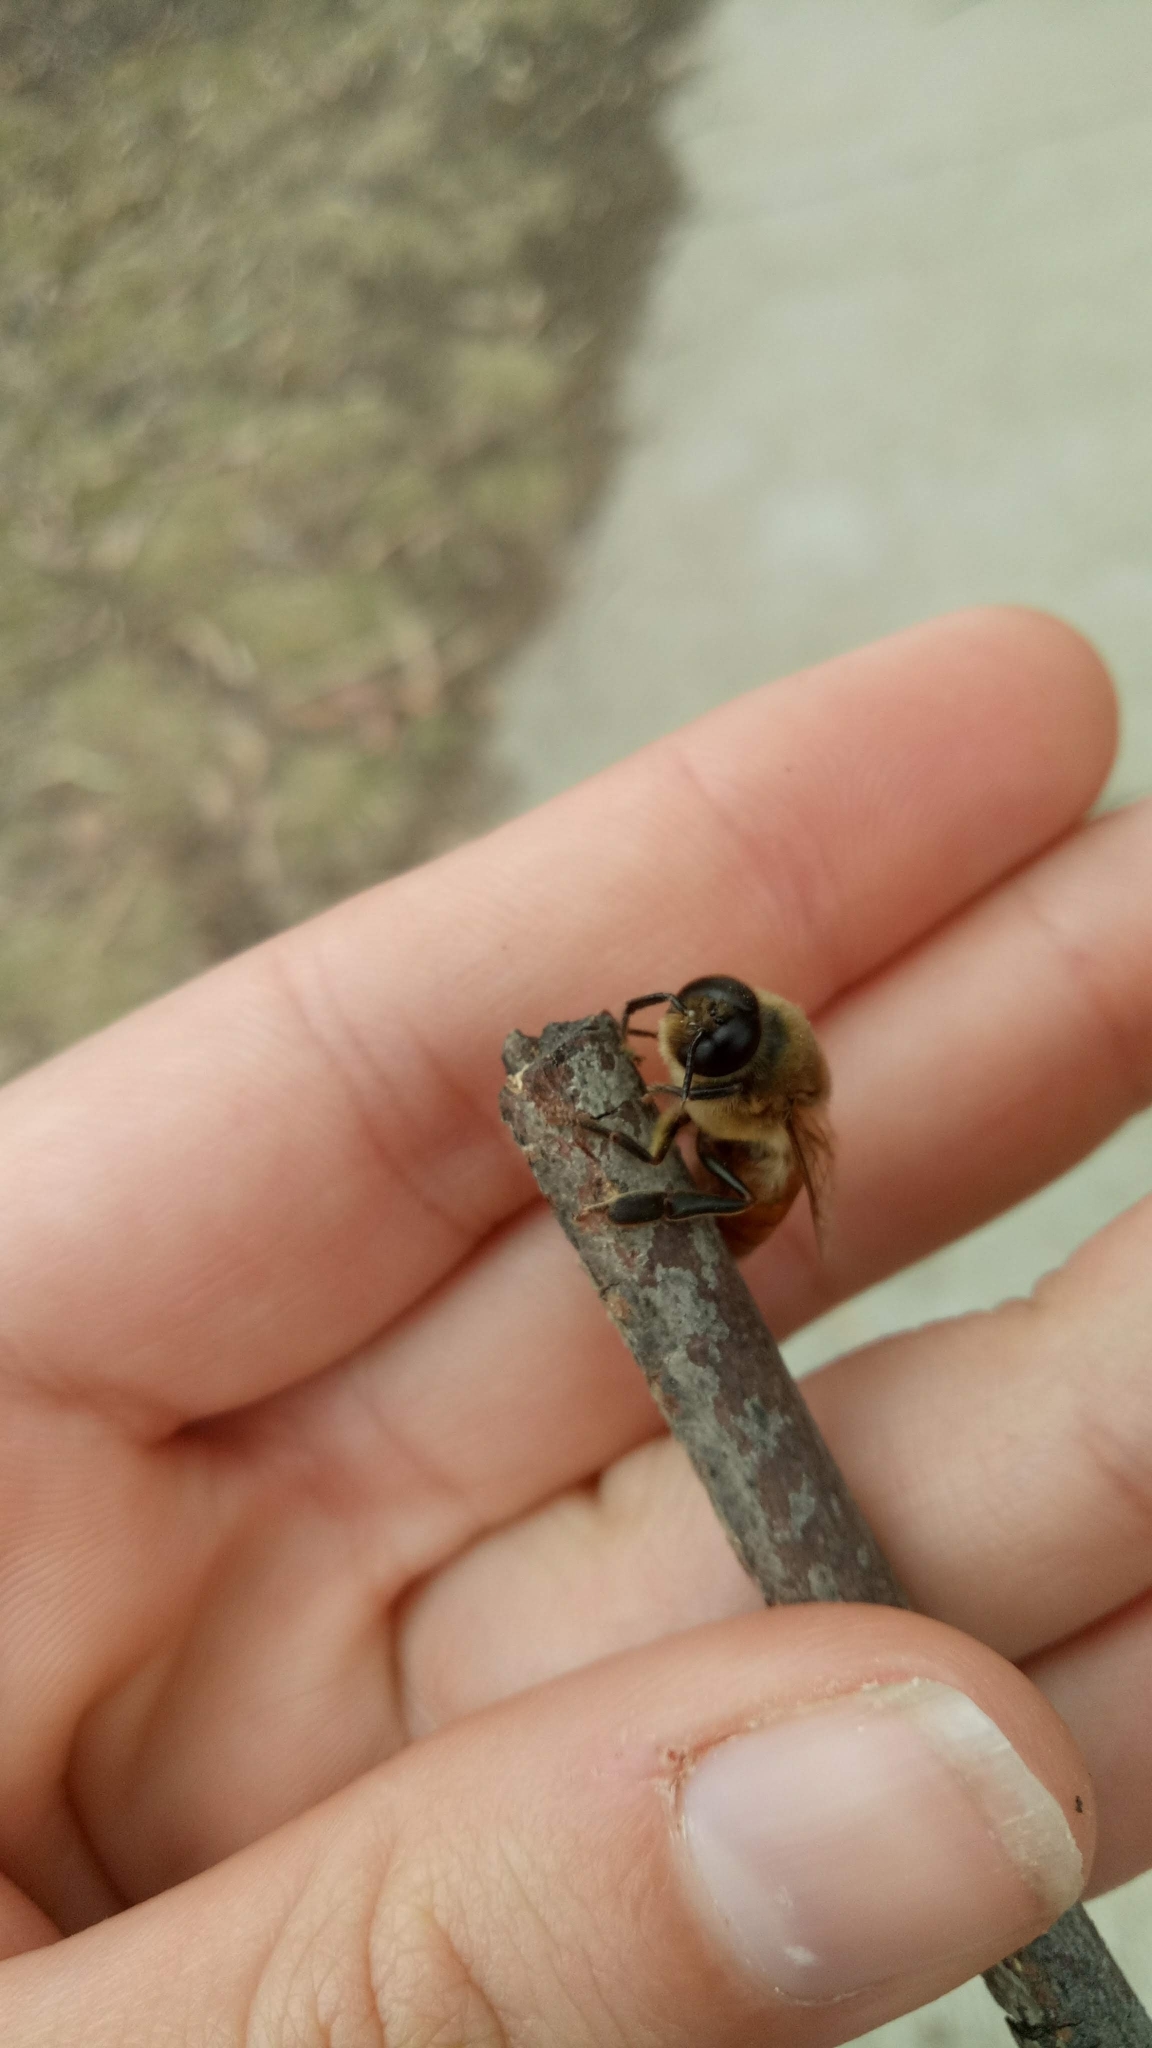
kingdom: Animalia
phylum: Arthropoda
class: Insecta
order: Hymenoptera
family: Apidae
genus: Apis
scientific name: Apis mellifera
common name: Honey bee
